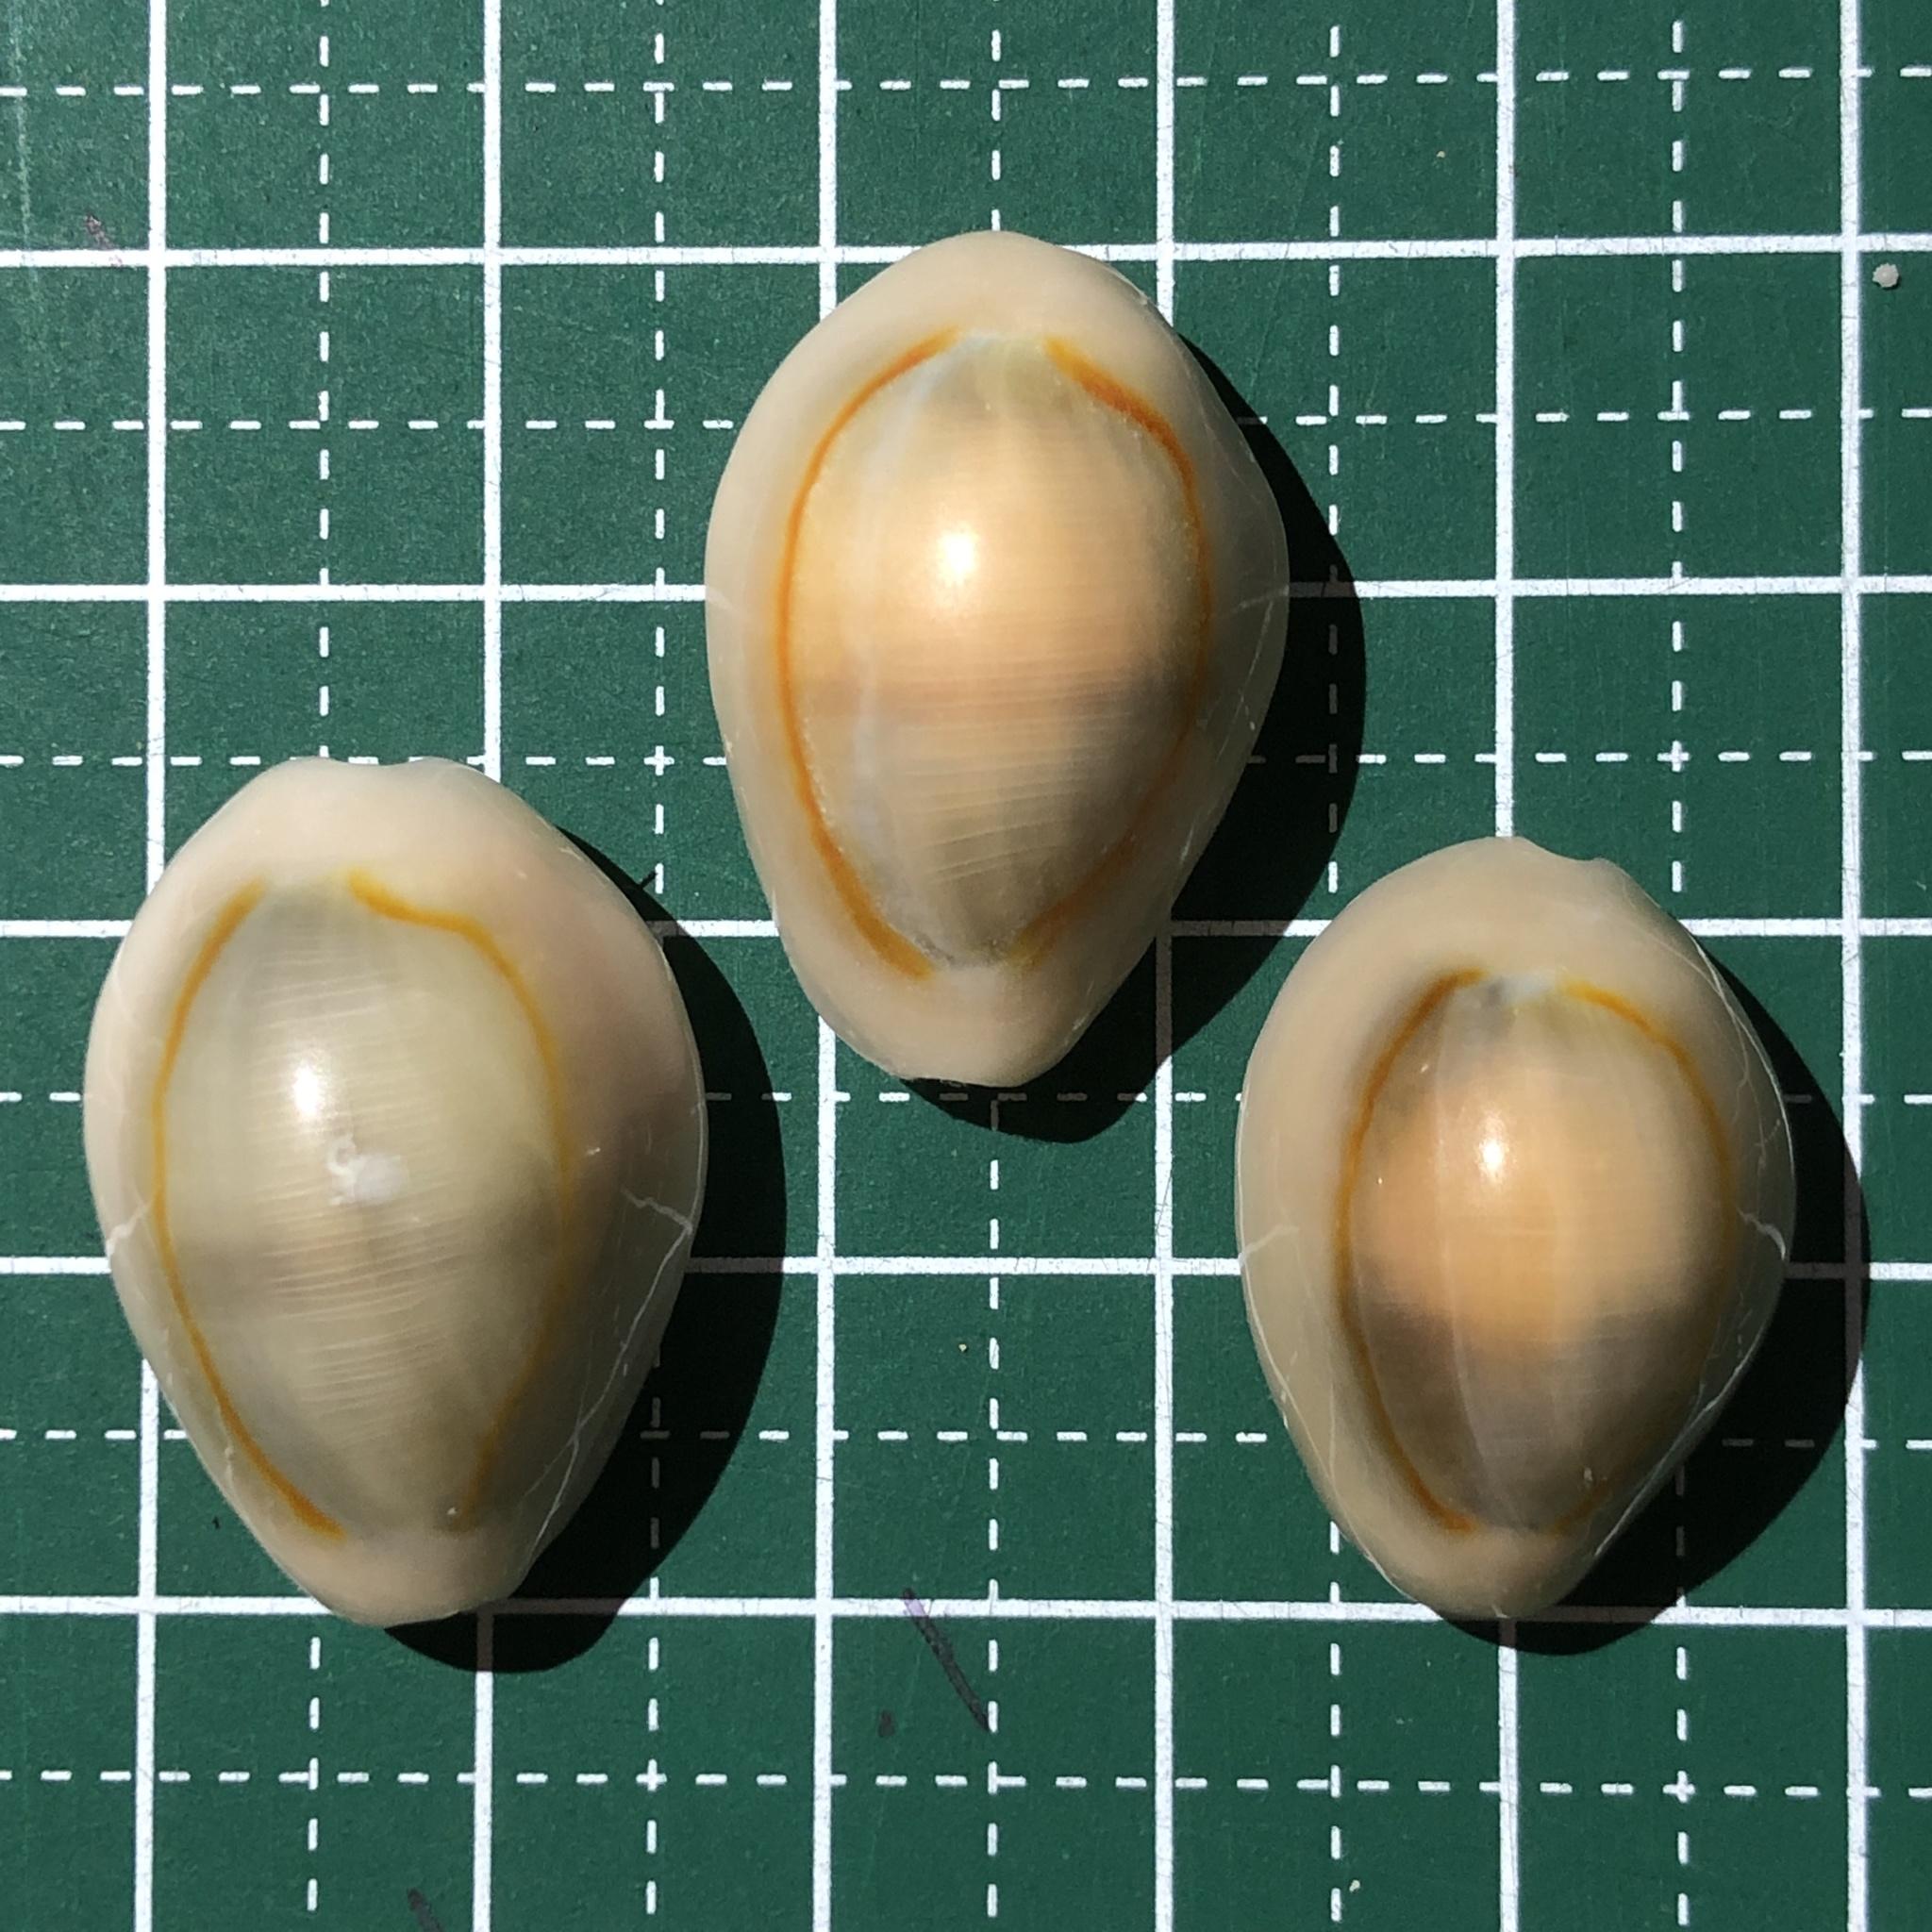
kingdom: Animalia
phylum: Mollusca
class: Gastropoda
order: Littorinimorpha
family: Cypraeidae
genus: Monetaria
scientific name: Monetaria annulus
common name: Ring cowrie
